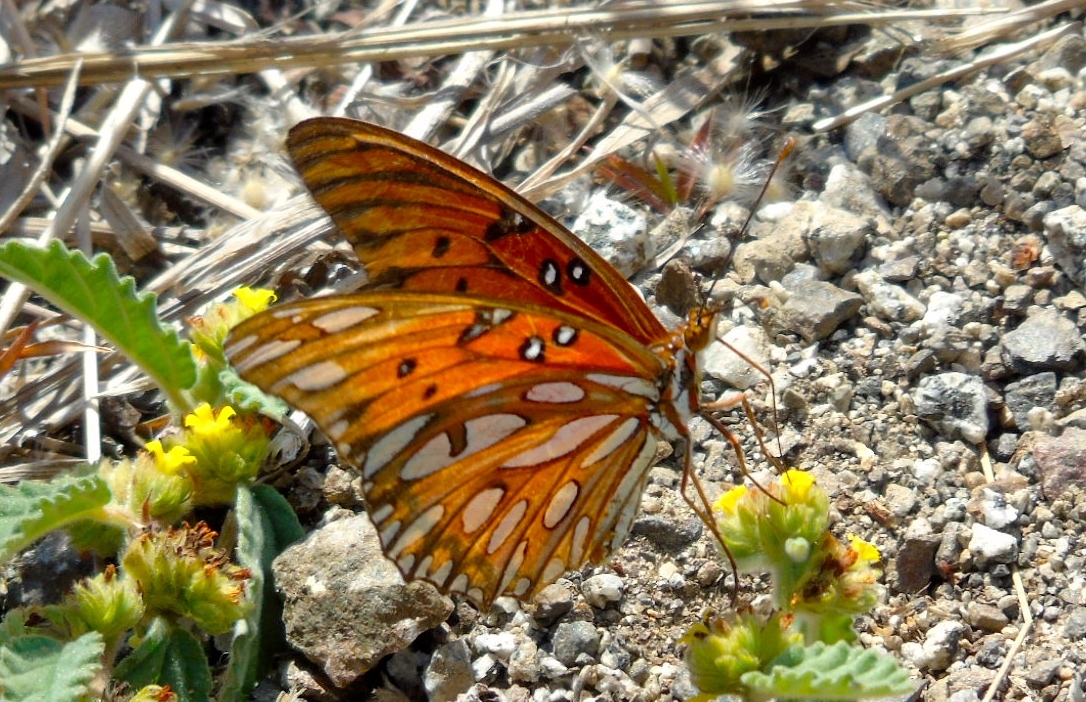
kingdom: Animalia
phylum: Arthropoda
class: Insecta
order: Lepidoptera
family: Nymphalidae
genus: Dione
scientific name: Dione vanillae
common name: Gulf fritillary
